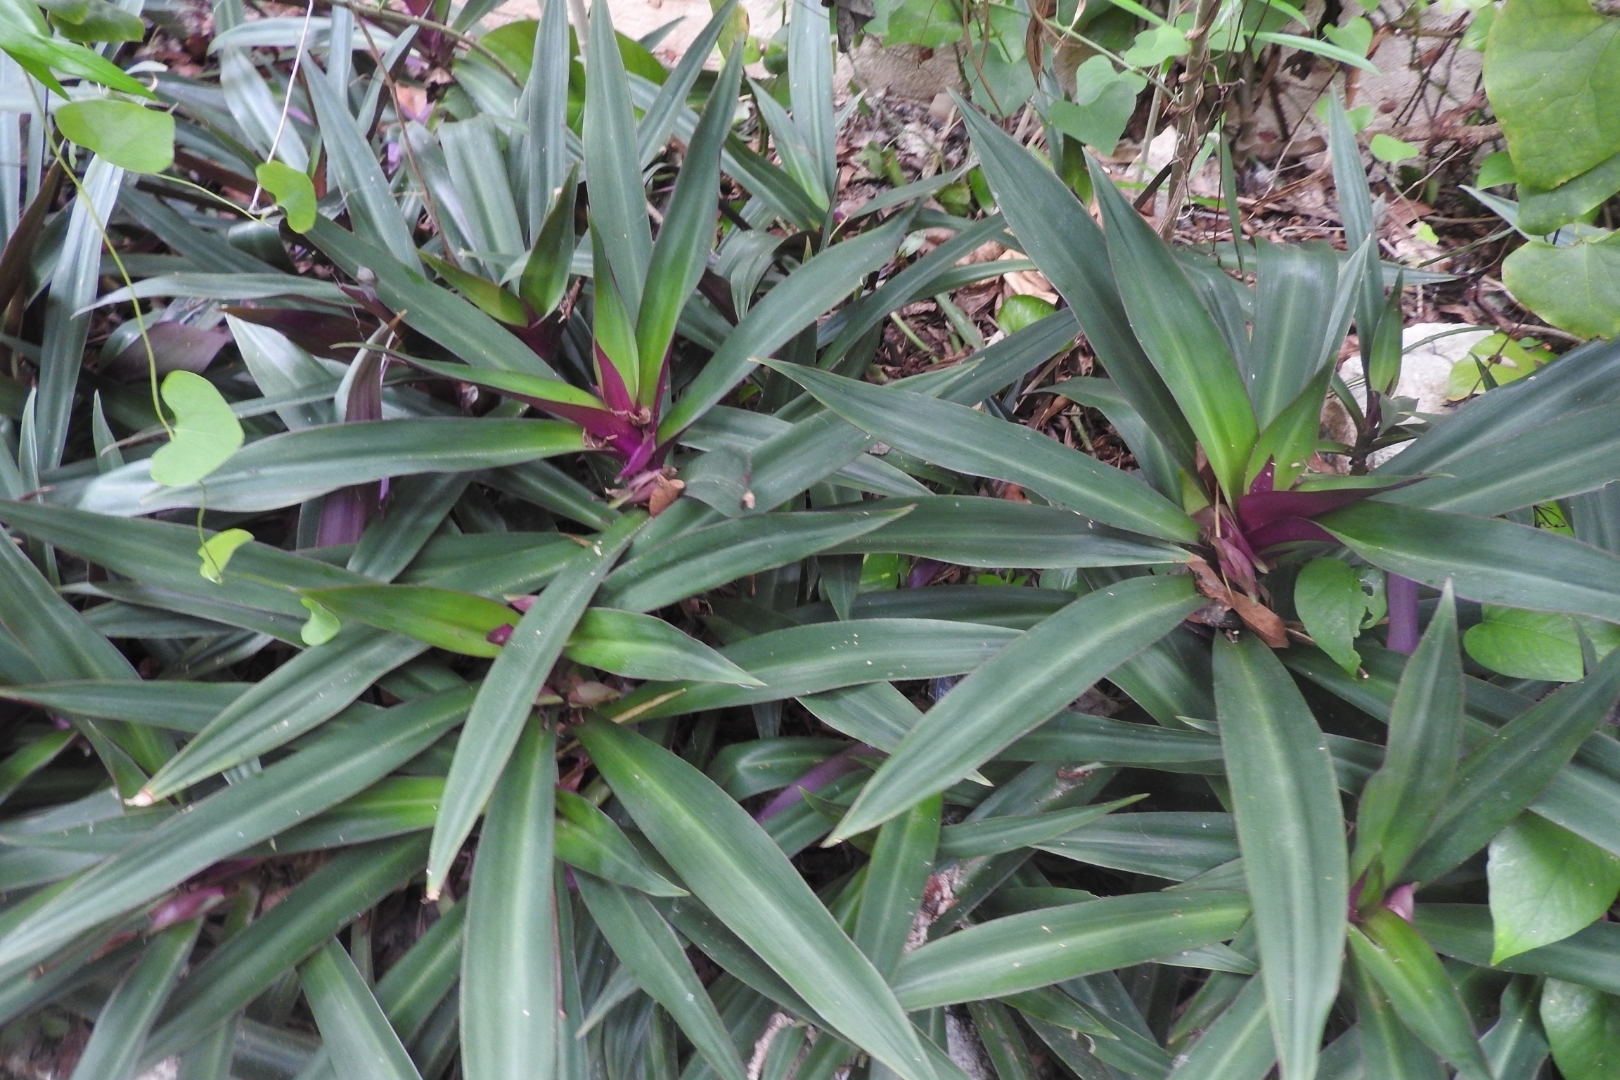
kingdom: Plantae
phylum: Tracheophyta
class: Liliopsida
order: Commelinales
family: Commelinaceae
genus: Tradescantia
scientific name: Tradescantia spathacea
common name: Boatlily
